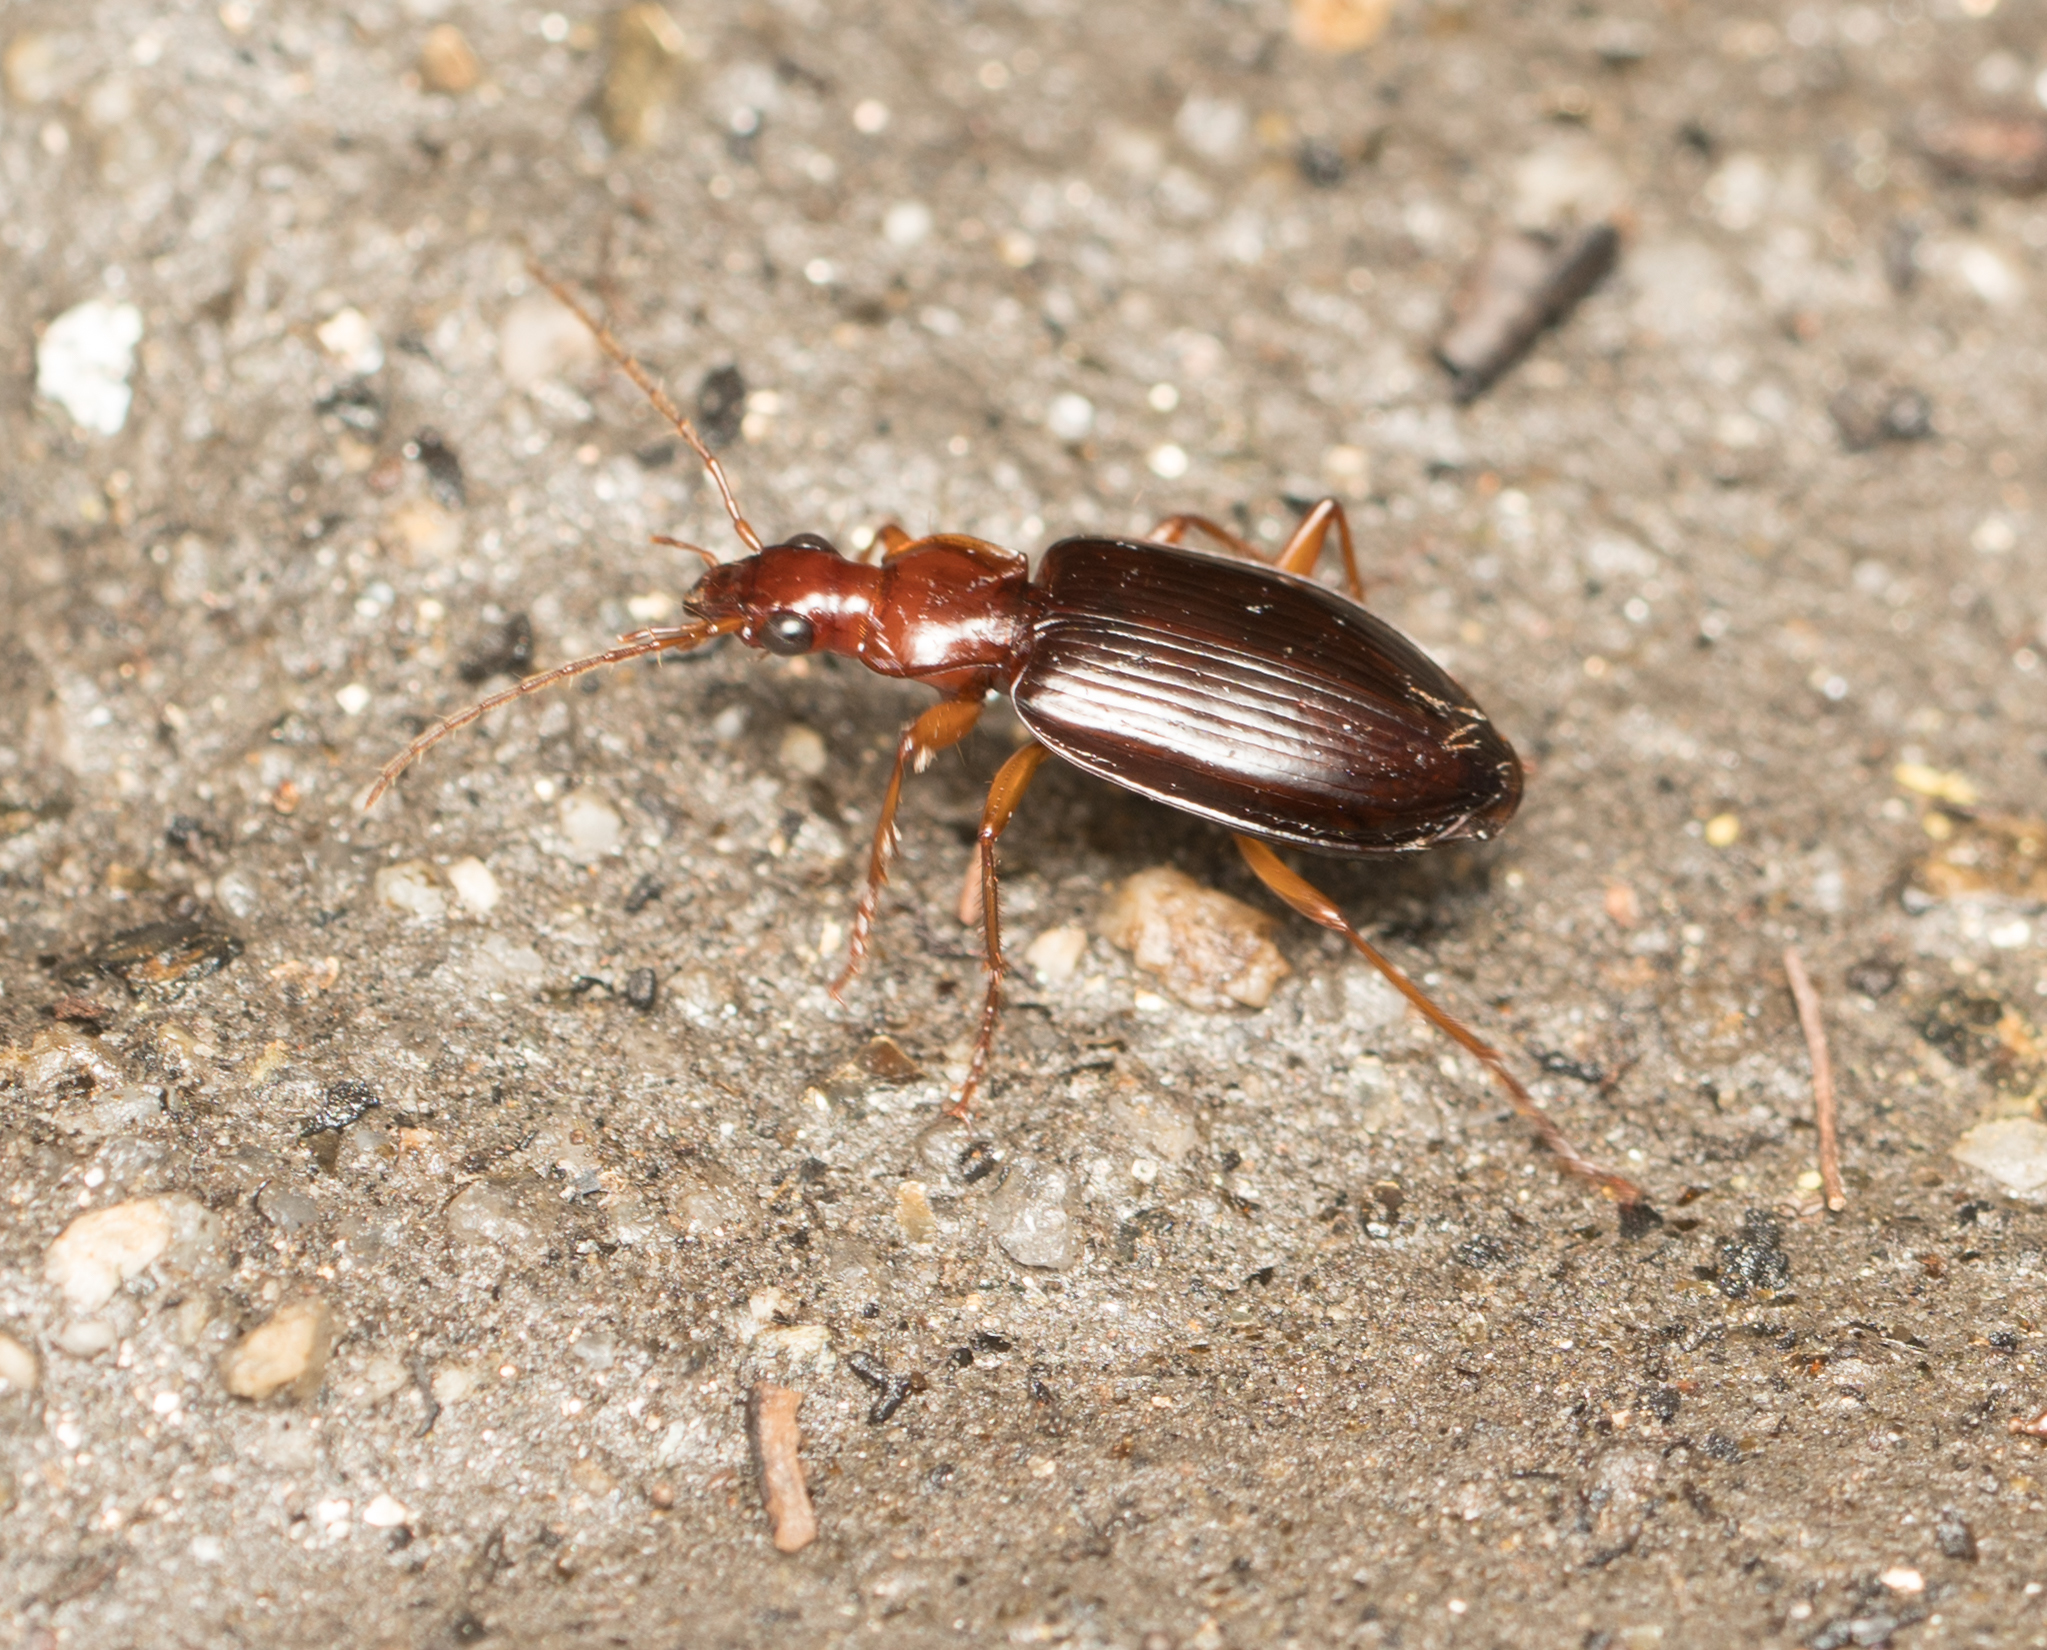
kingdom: Animalia
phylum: Arthropoda
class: Insecta
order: Coleoptera
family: Carabidae
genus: Platynus
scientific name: Platynus brunneomarginatus
